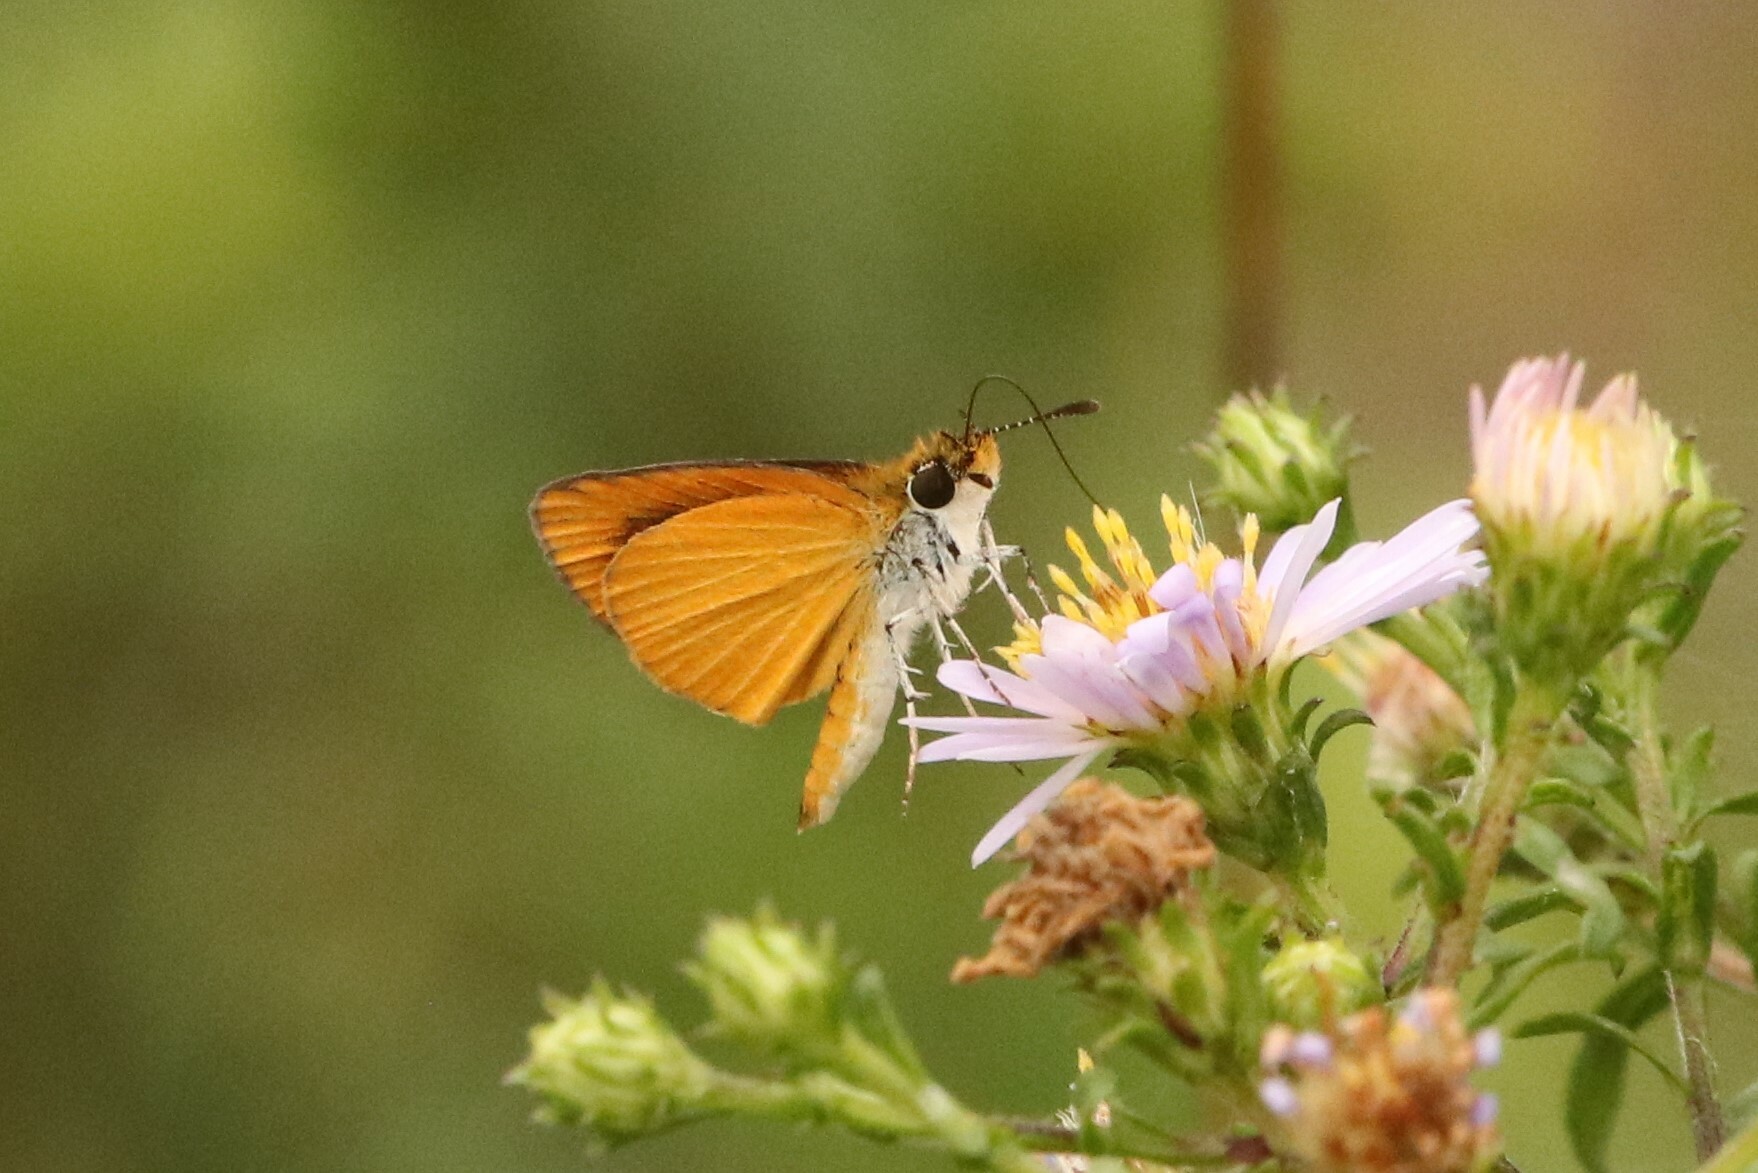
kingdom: Animalia
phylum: Arthropoda
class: Insecta
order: Lepidoptera
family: Hesperiidae
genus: Ancyloxypha
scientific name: Ancyloxypha numitor
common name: Least skipper
